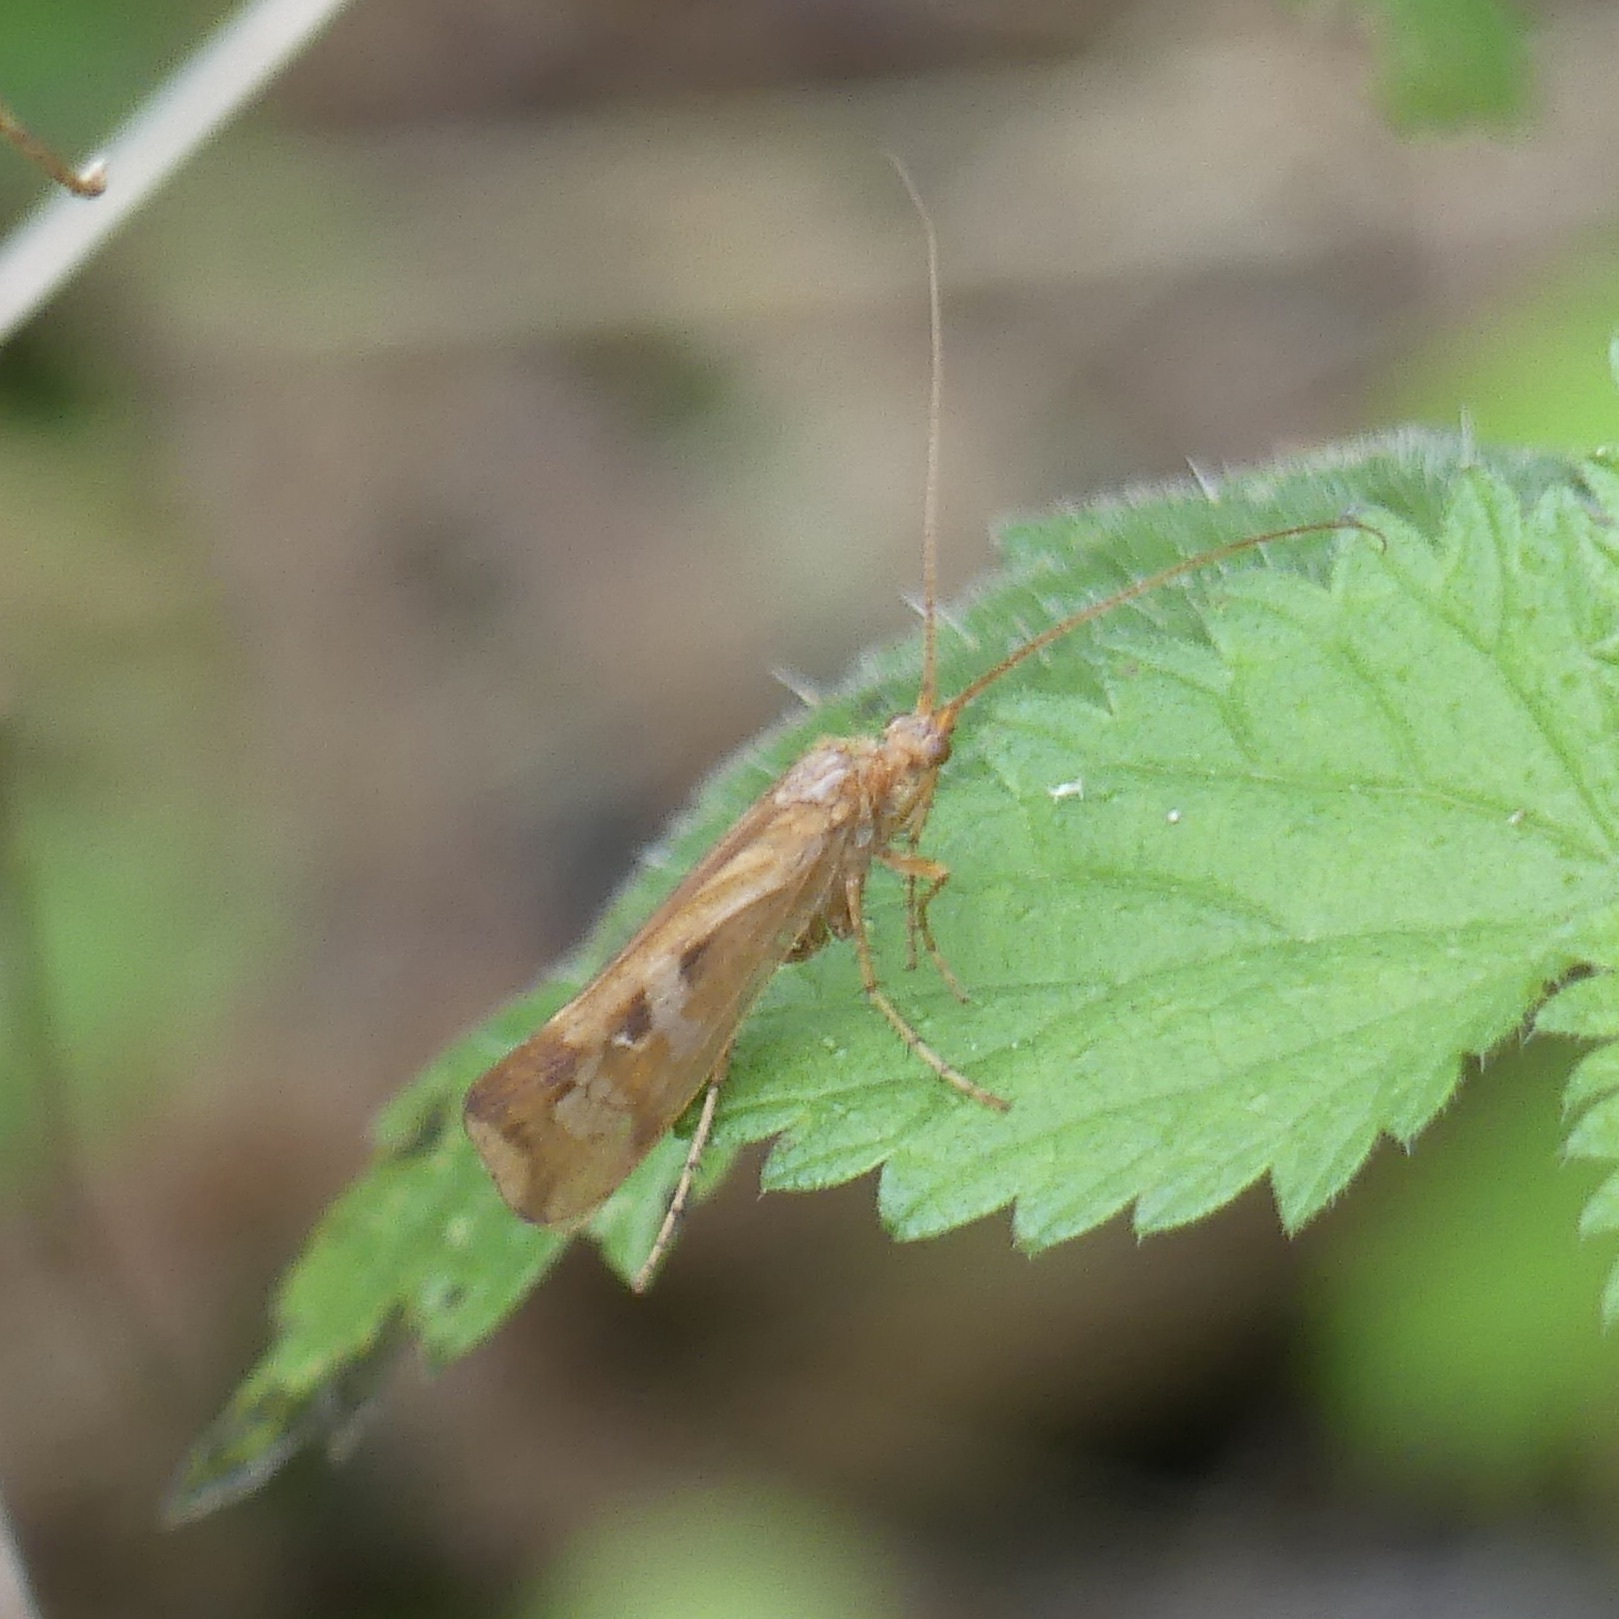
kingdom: Animalia
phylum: Arthropoda
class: Insecta
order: Trichoptera
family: Limnephilidae
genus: Limnephilus
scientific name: Limnephilus lunatus
